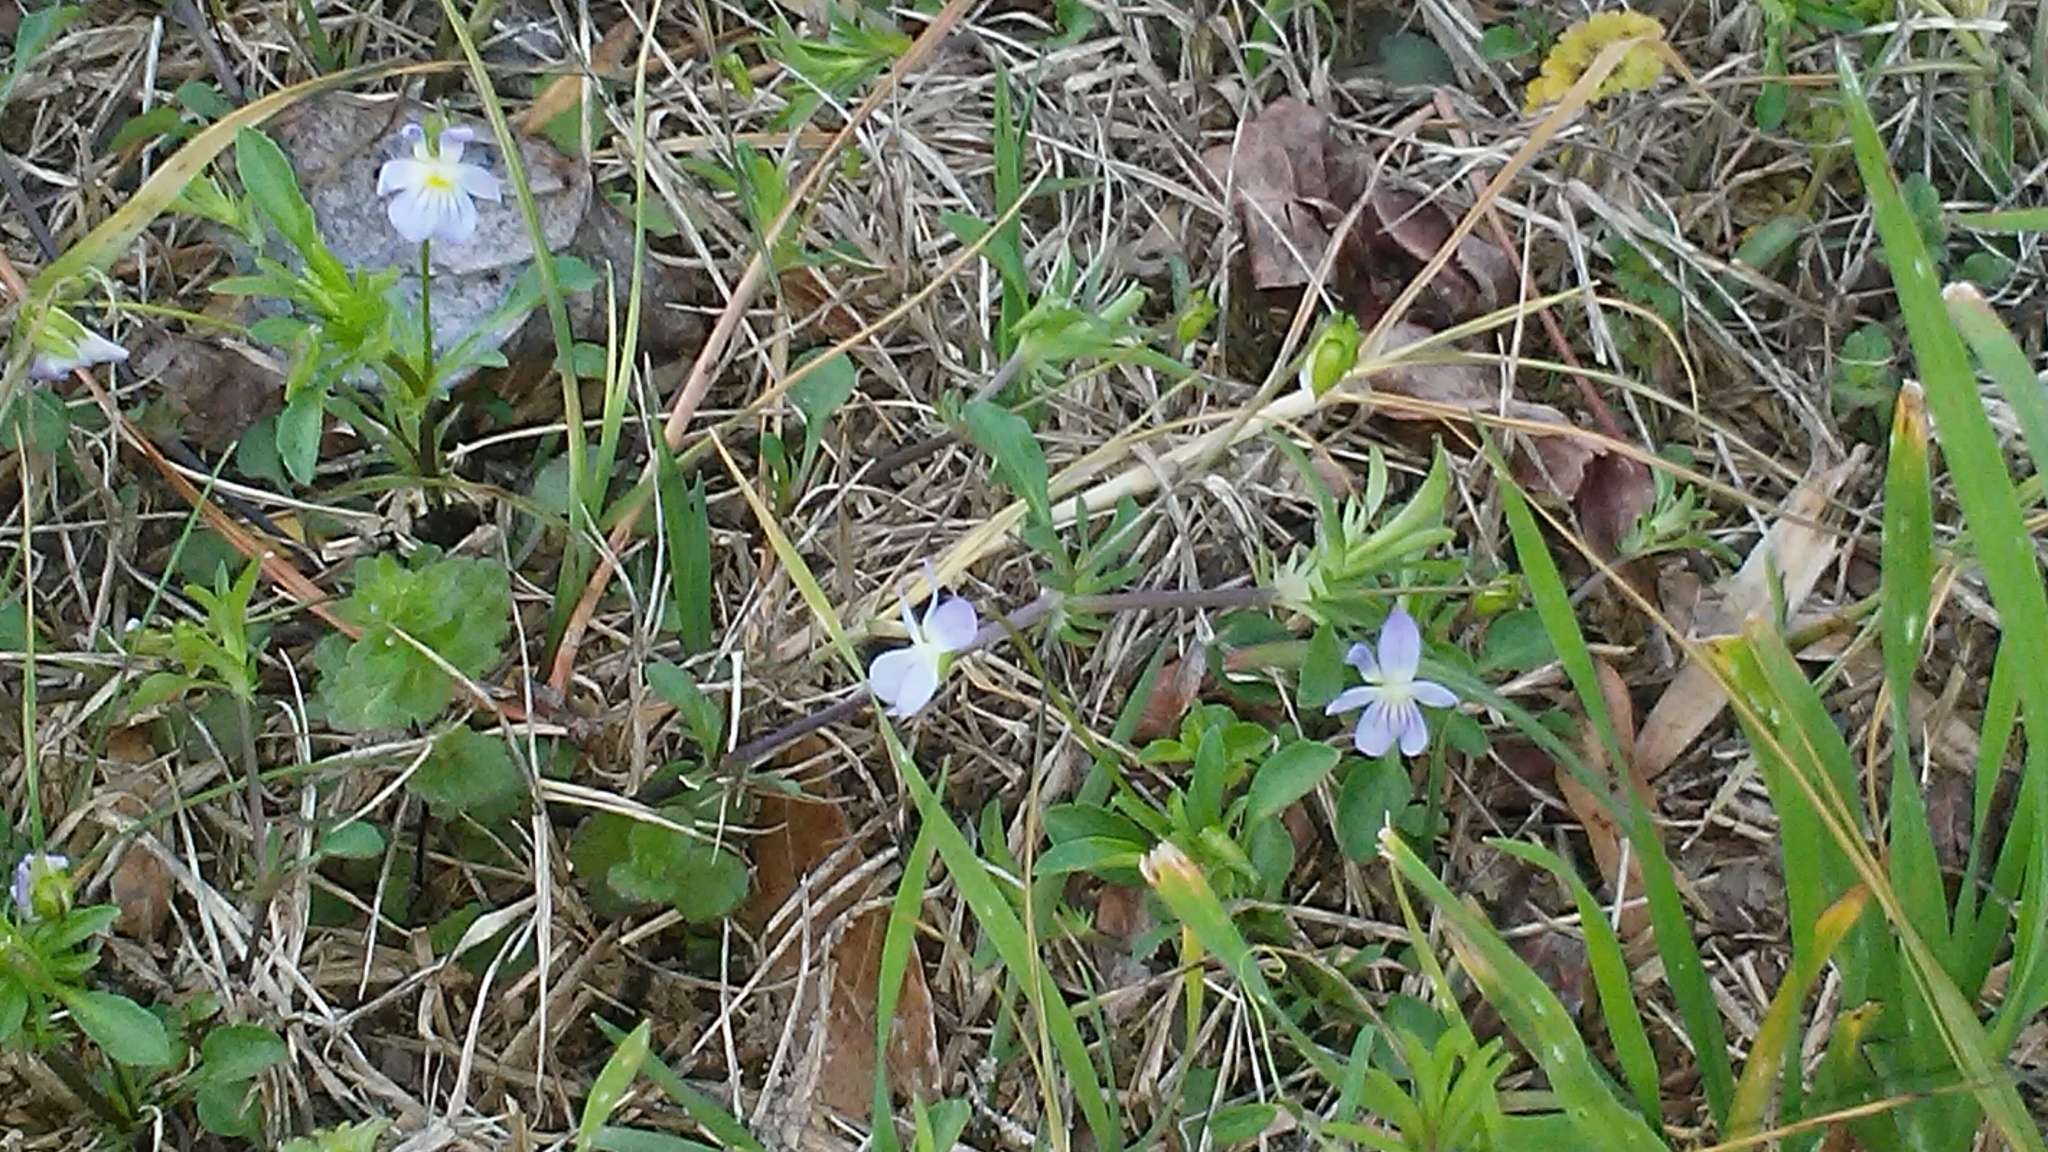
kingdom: Plantae
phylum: Tracheophyta
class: Magnoliopsida
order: Malpighiales
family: Violaceae
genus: Viola
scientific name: Viola rafinesquei
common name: American field pansy
